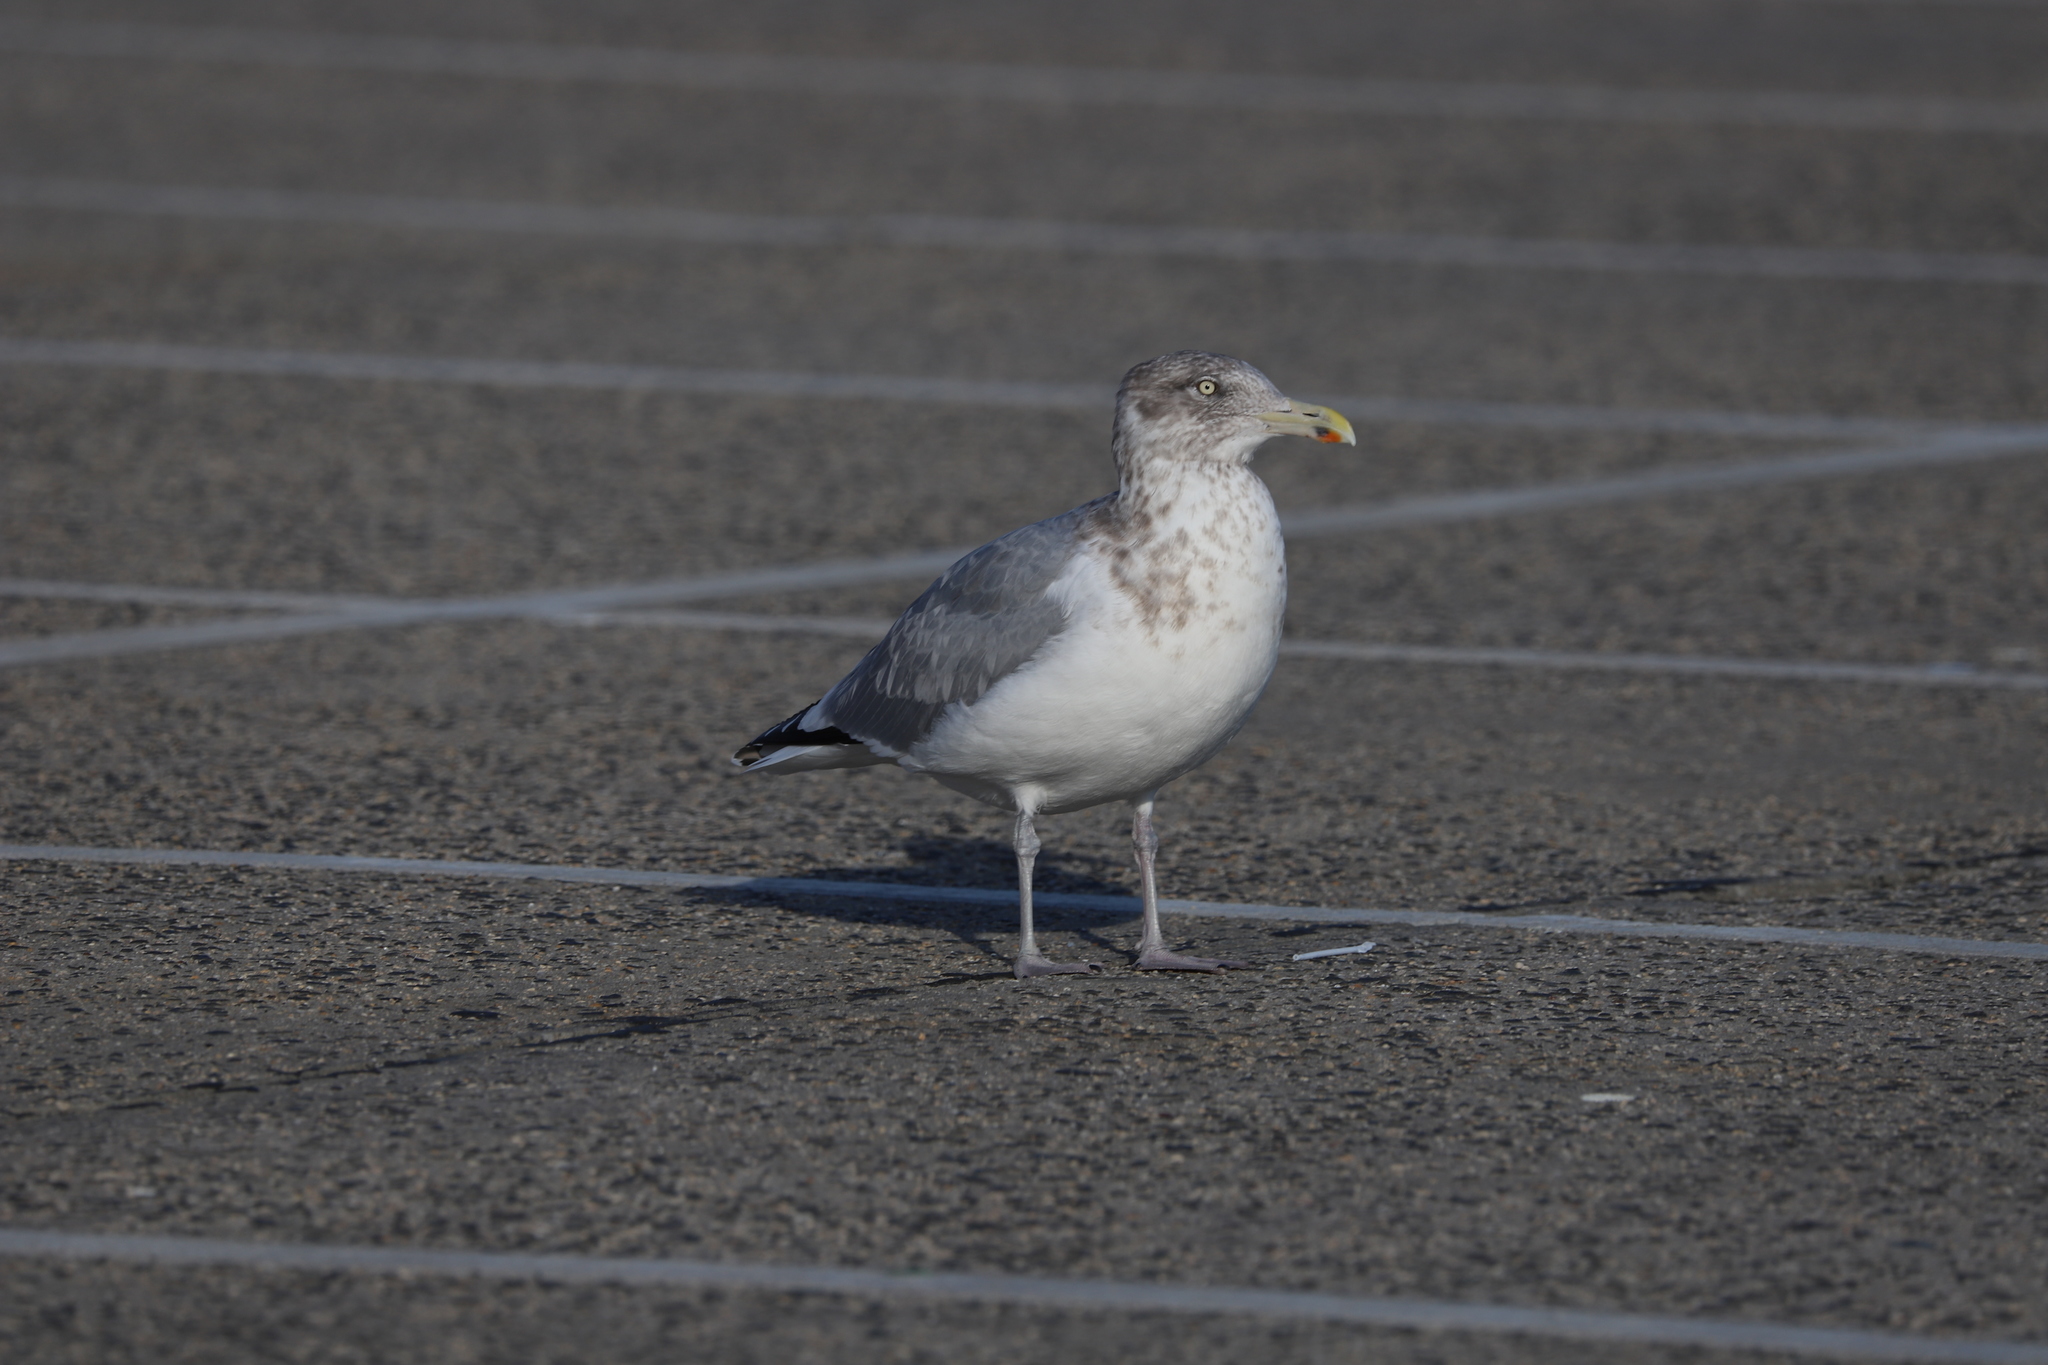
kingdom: Animalia
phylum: Chordata
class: Aves
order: Charadriiformes
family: Laridae
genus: Larus
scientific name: Larus argentatus
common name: Herring gull
